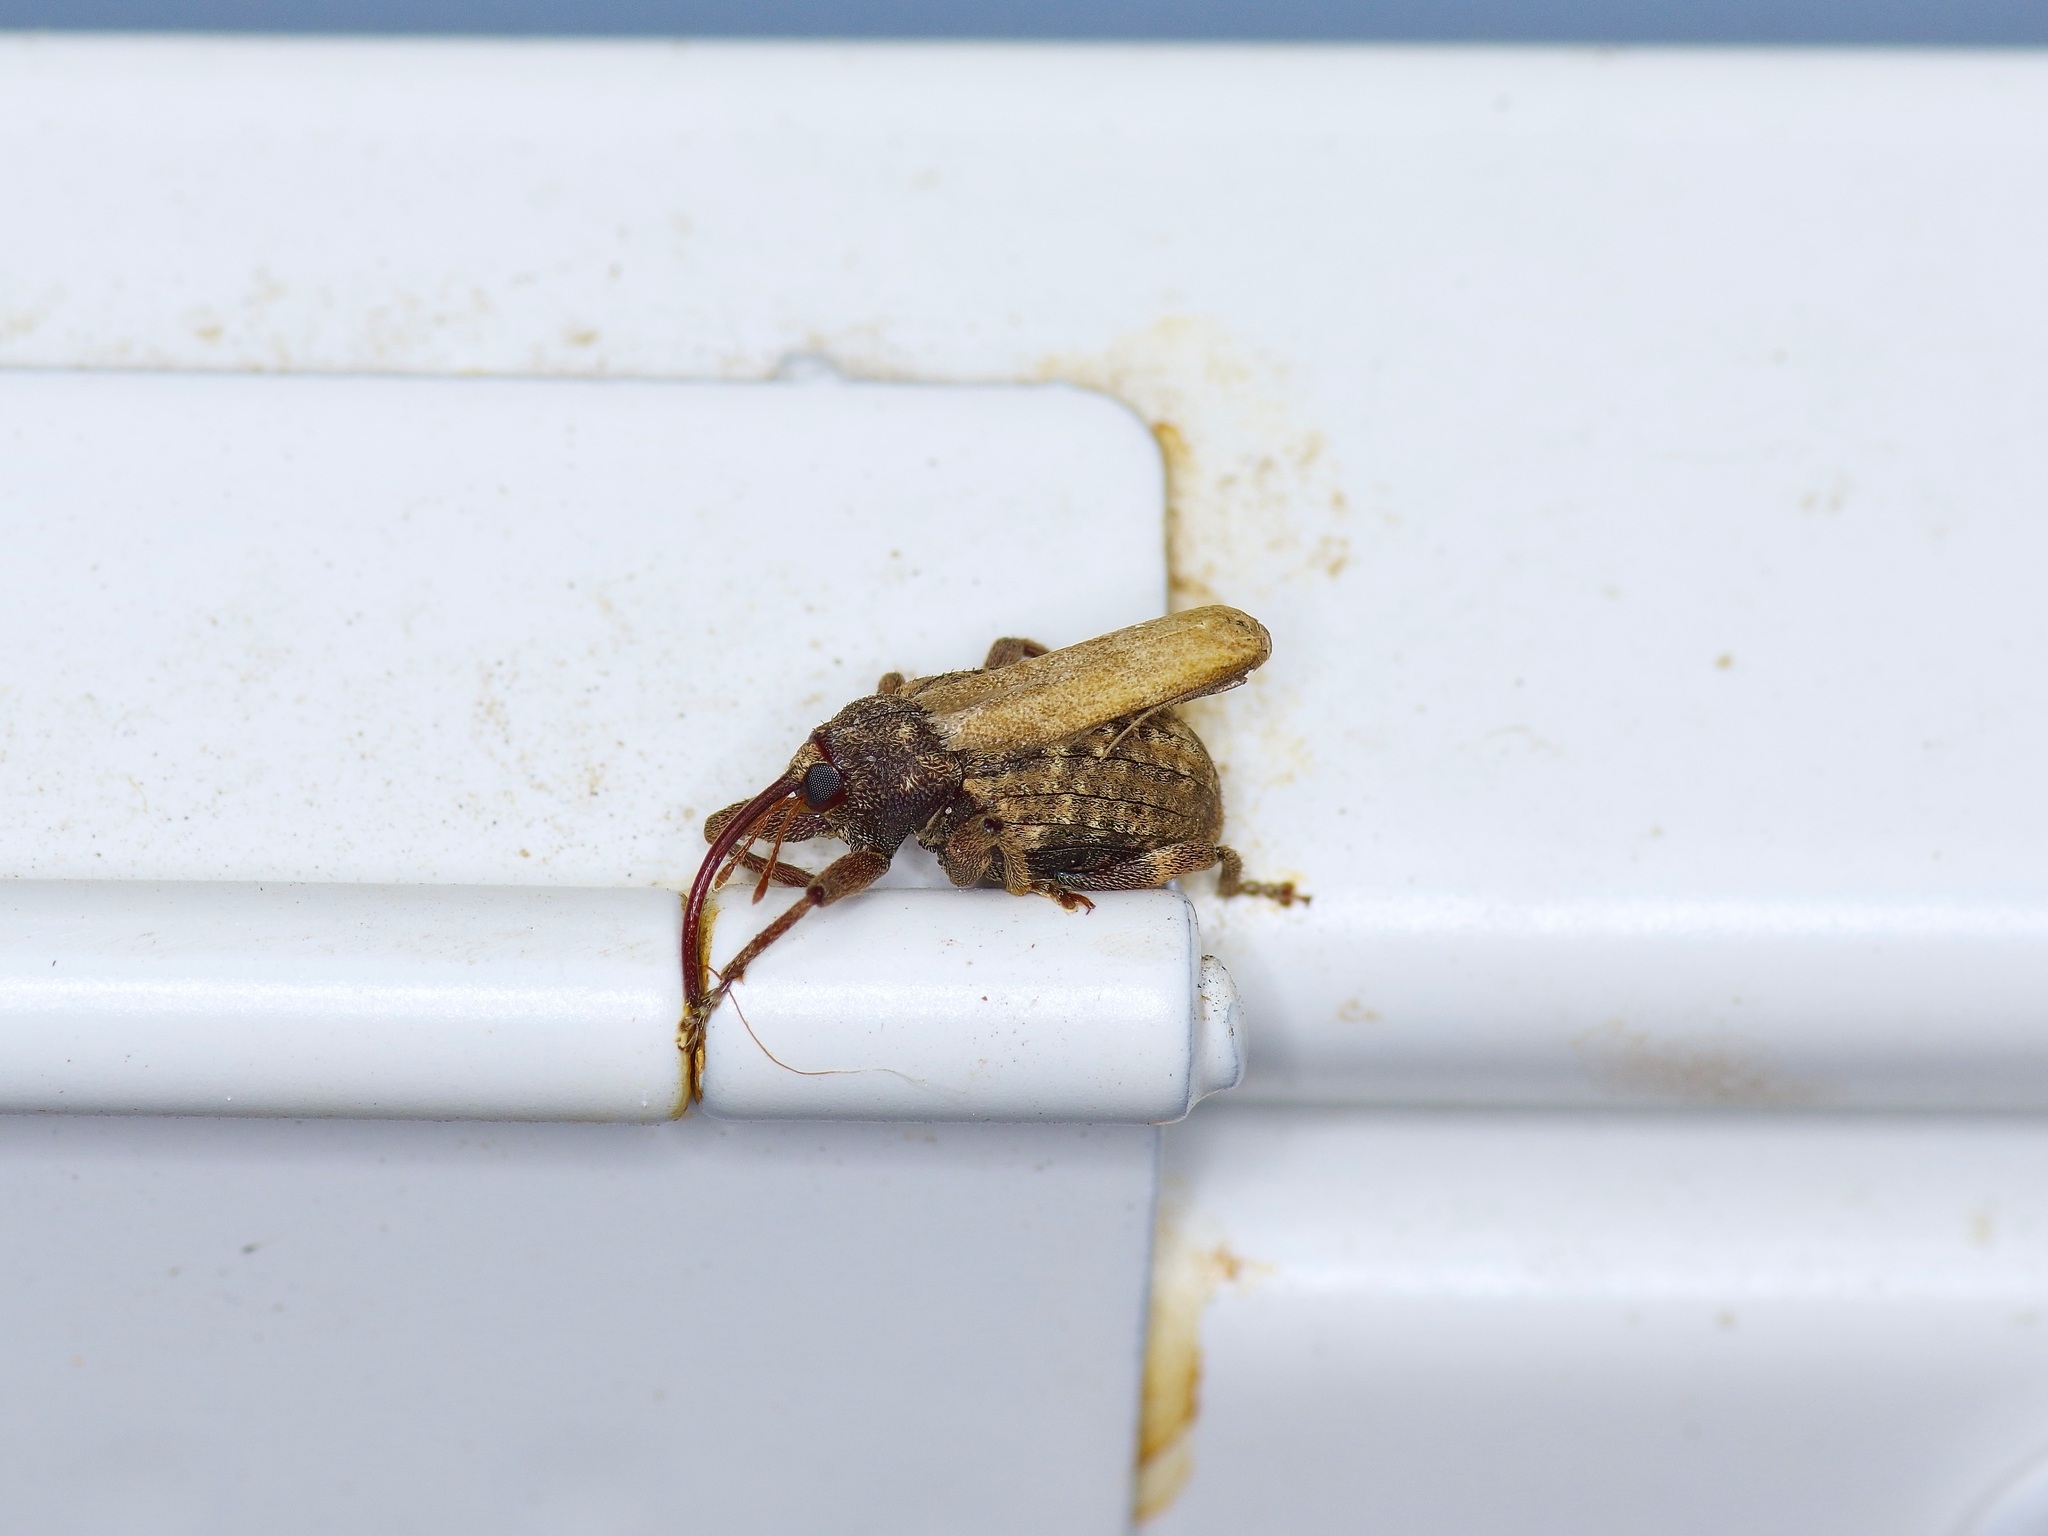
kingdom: Animalia
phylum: Arthropoda
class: Insecta
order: Coleoptera
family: Curculionidae
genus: Conotrachelus
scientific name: Conotrachelus naso
